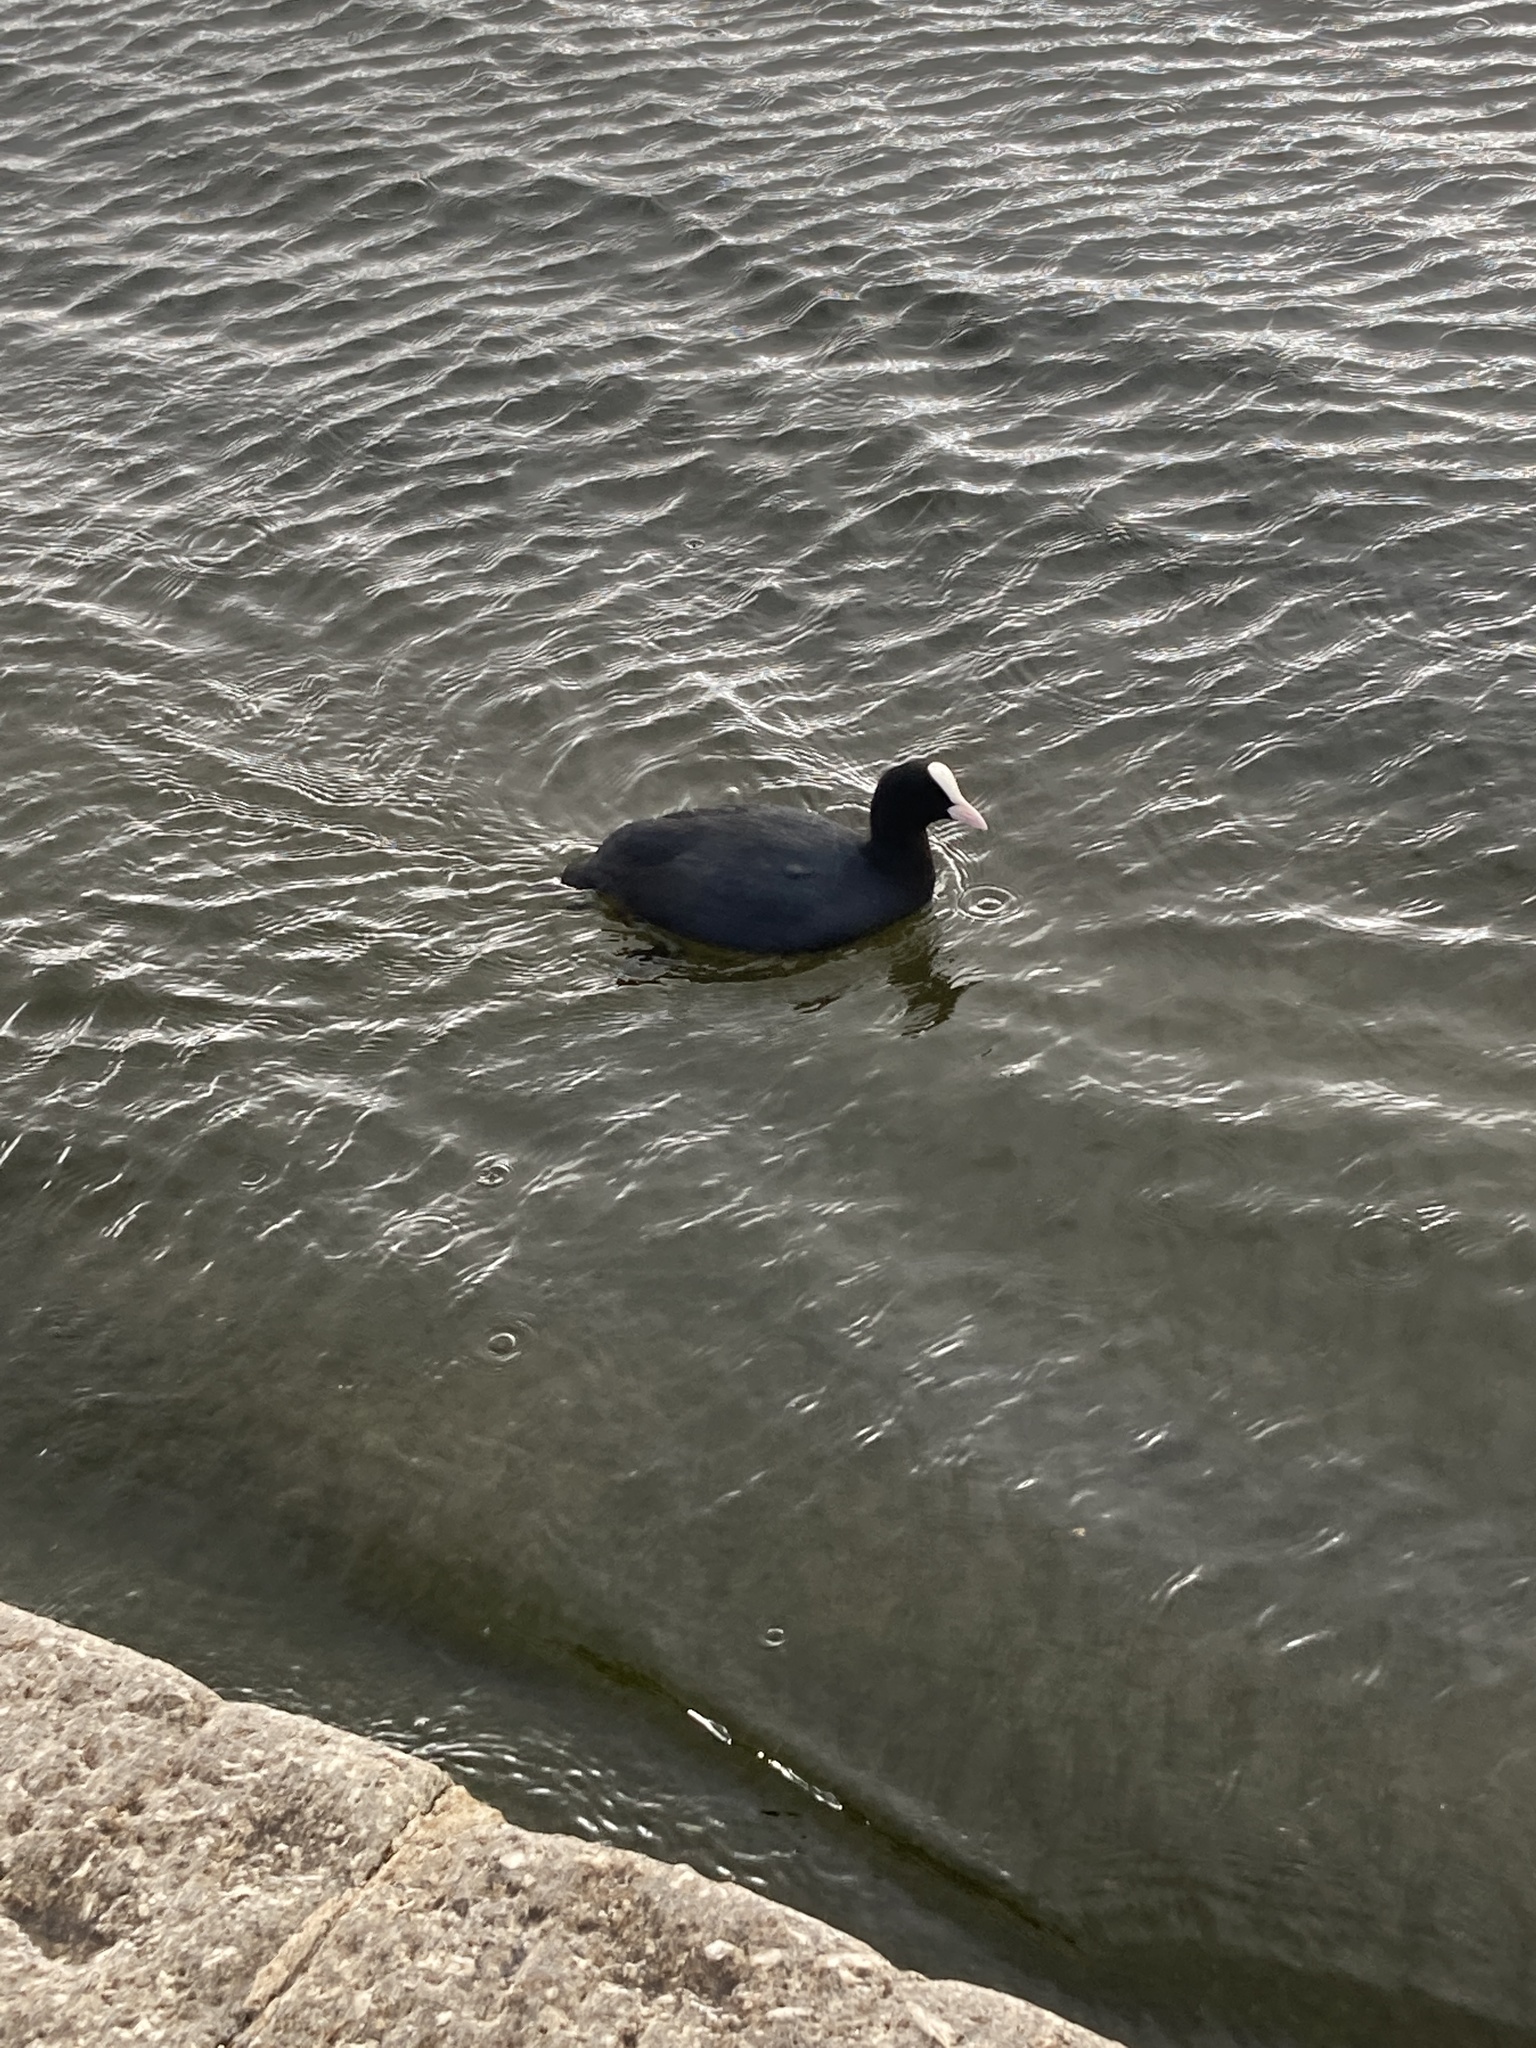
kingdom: Animalia
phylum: Chordata
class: Aves
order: Gruiformes
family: Rallidae
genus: Fulica
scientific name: Fulica atra
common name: Eurasian coot
